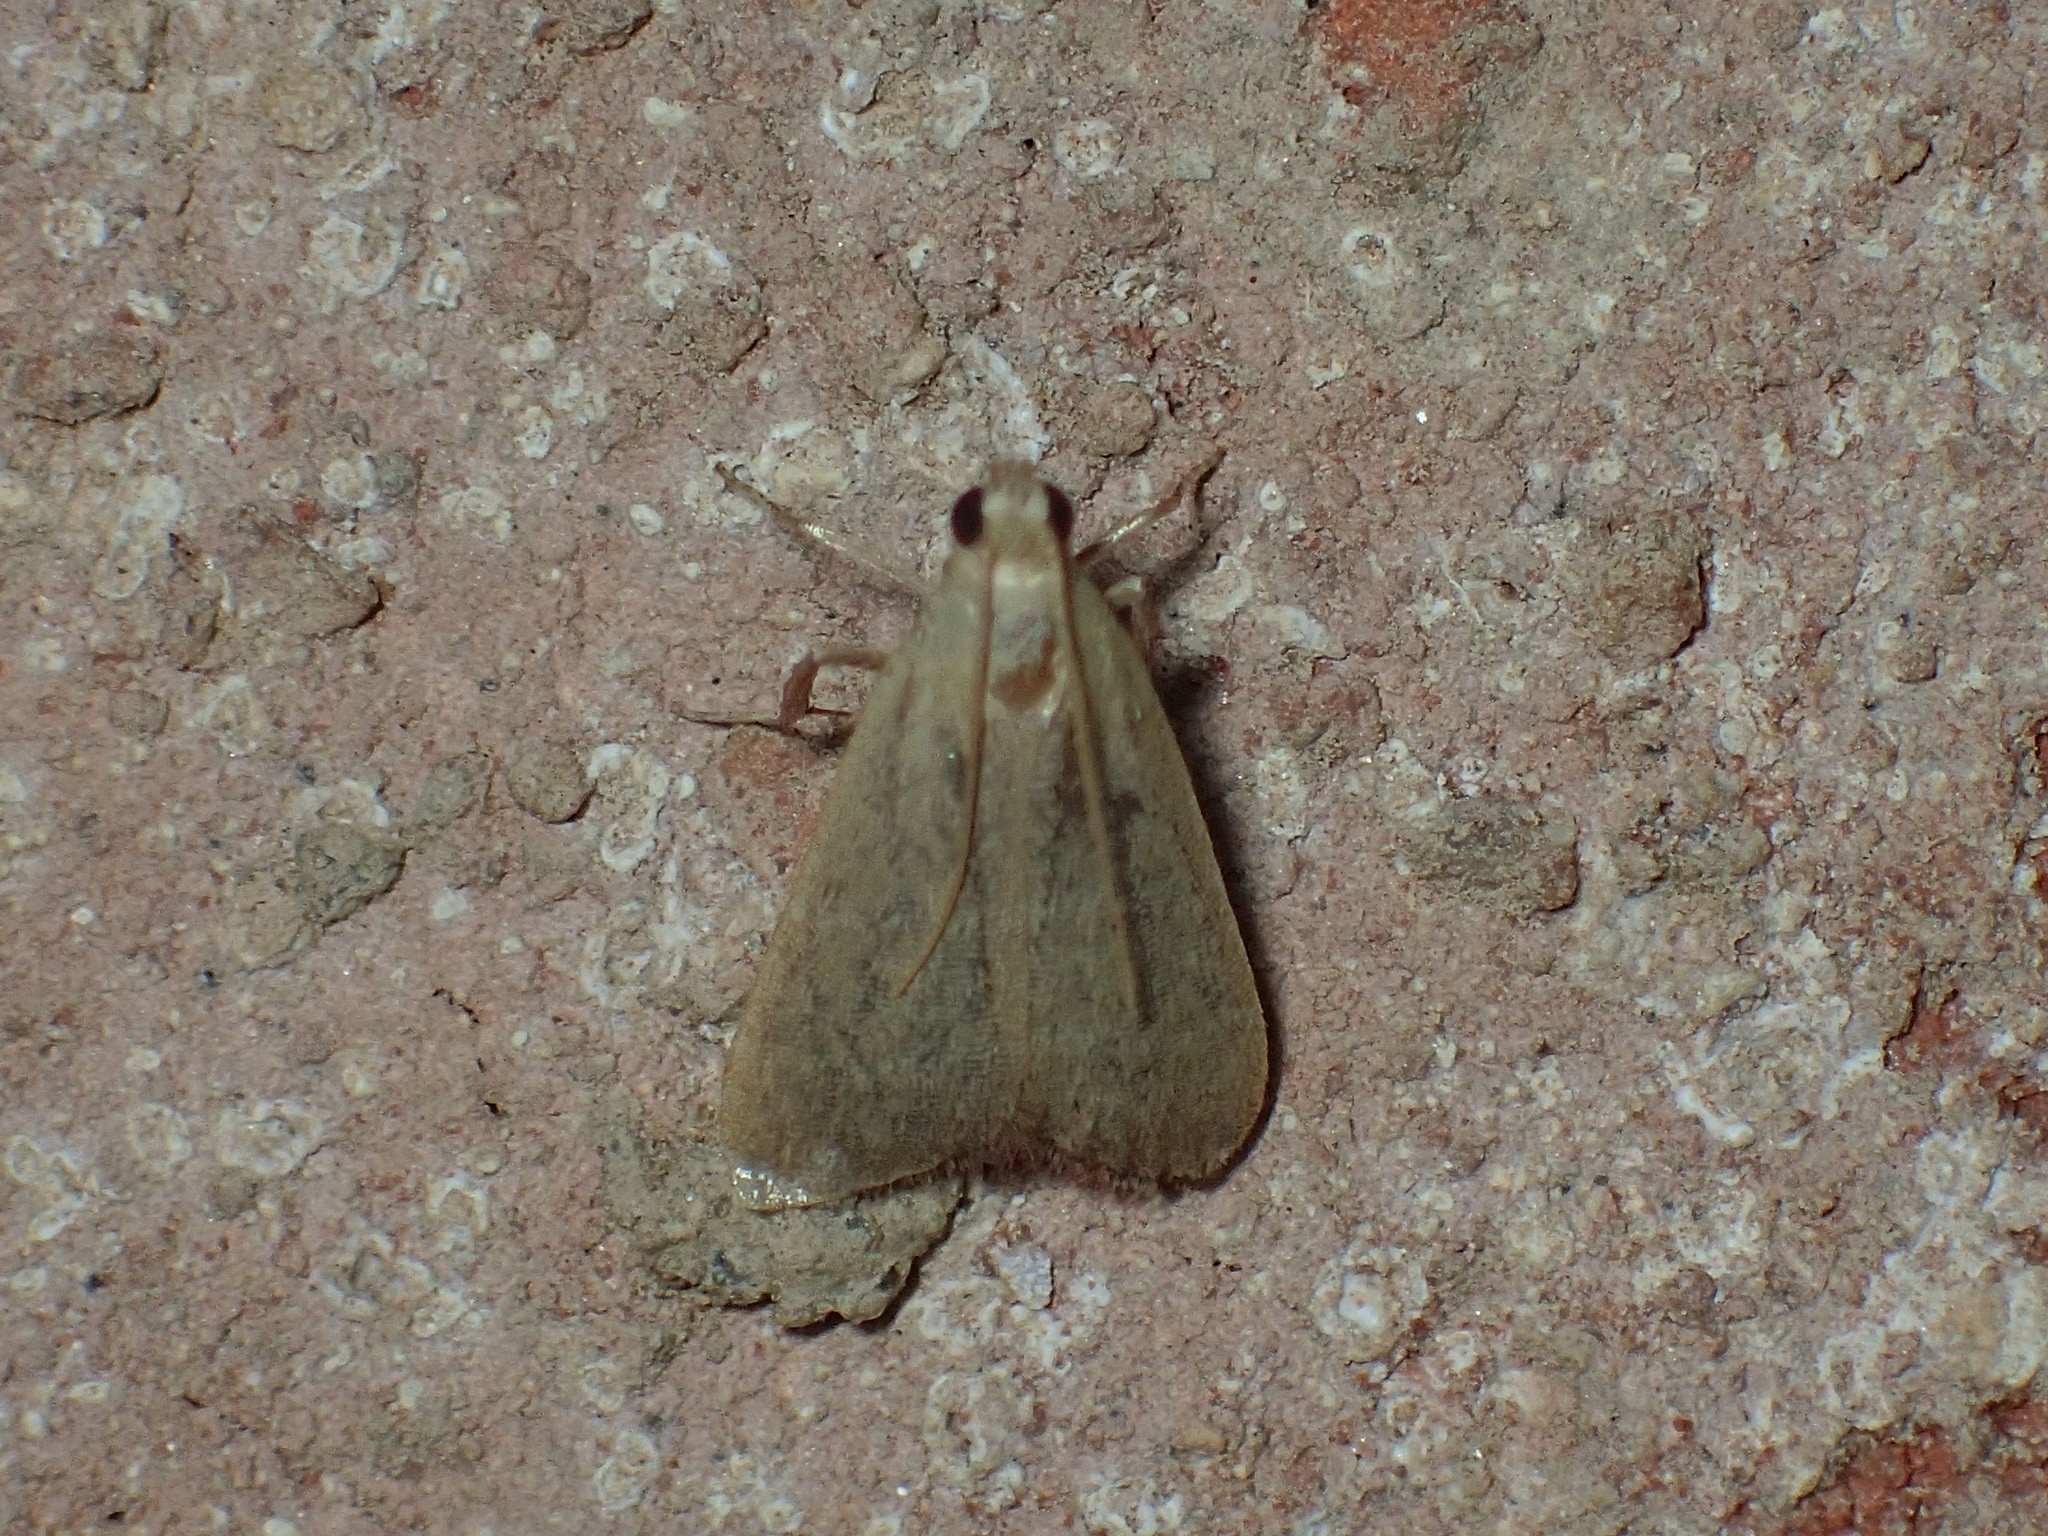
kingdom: Animalia
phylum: Arthropoda
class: Insecta
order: Lepidoptera
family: Pyralidae
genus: Arta
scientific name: Arta olivalis
